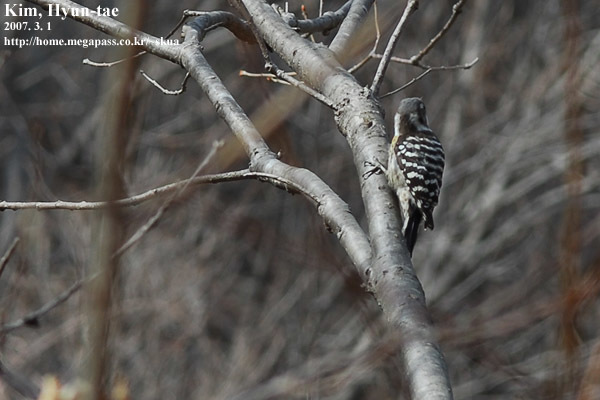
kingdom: Animalia
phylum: Chordata
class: Aves
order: Piciformes
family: Picidae
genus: Yungipicus
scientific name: Yungipicus kizuki
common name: Japanese pygmy woodpecker
